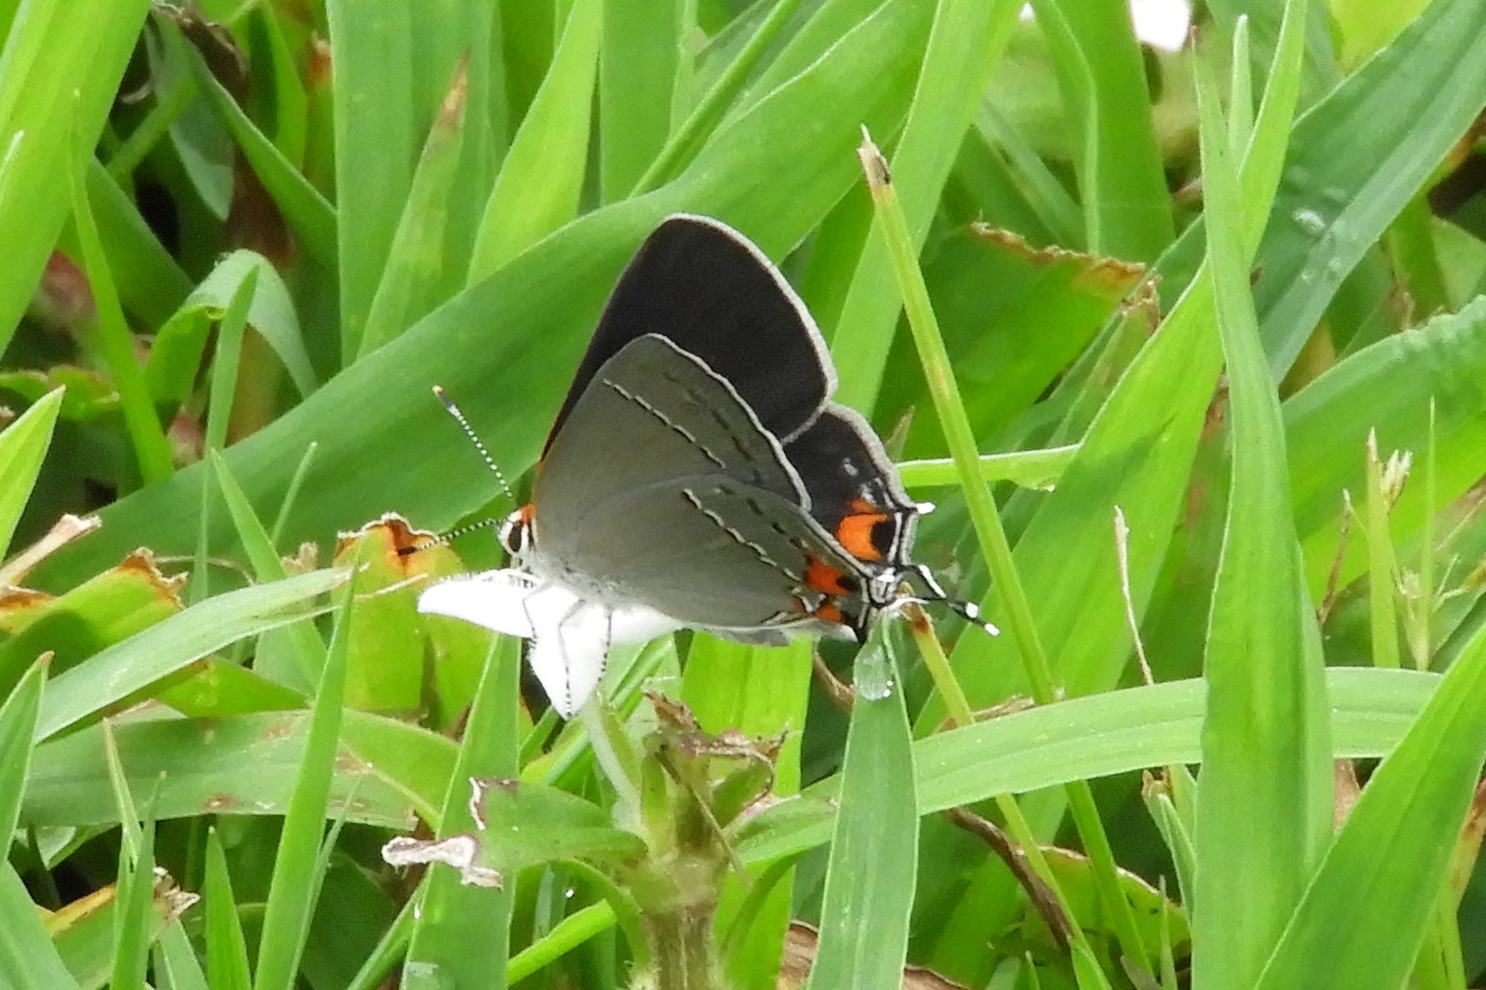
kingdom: Animalia
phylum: Arthropoda
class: Insecta
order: Lepidoptera
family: Lycaenidae
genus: Strymon
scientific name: Strymon melinus
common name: Gray hairstreak
